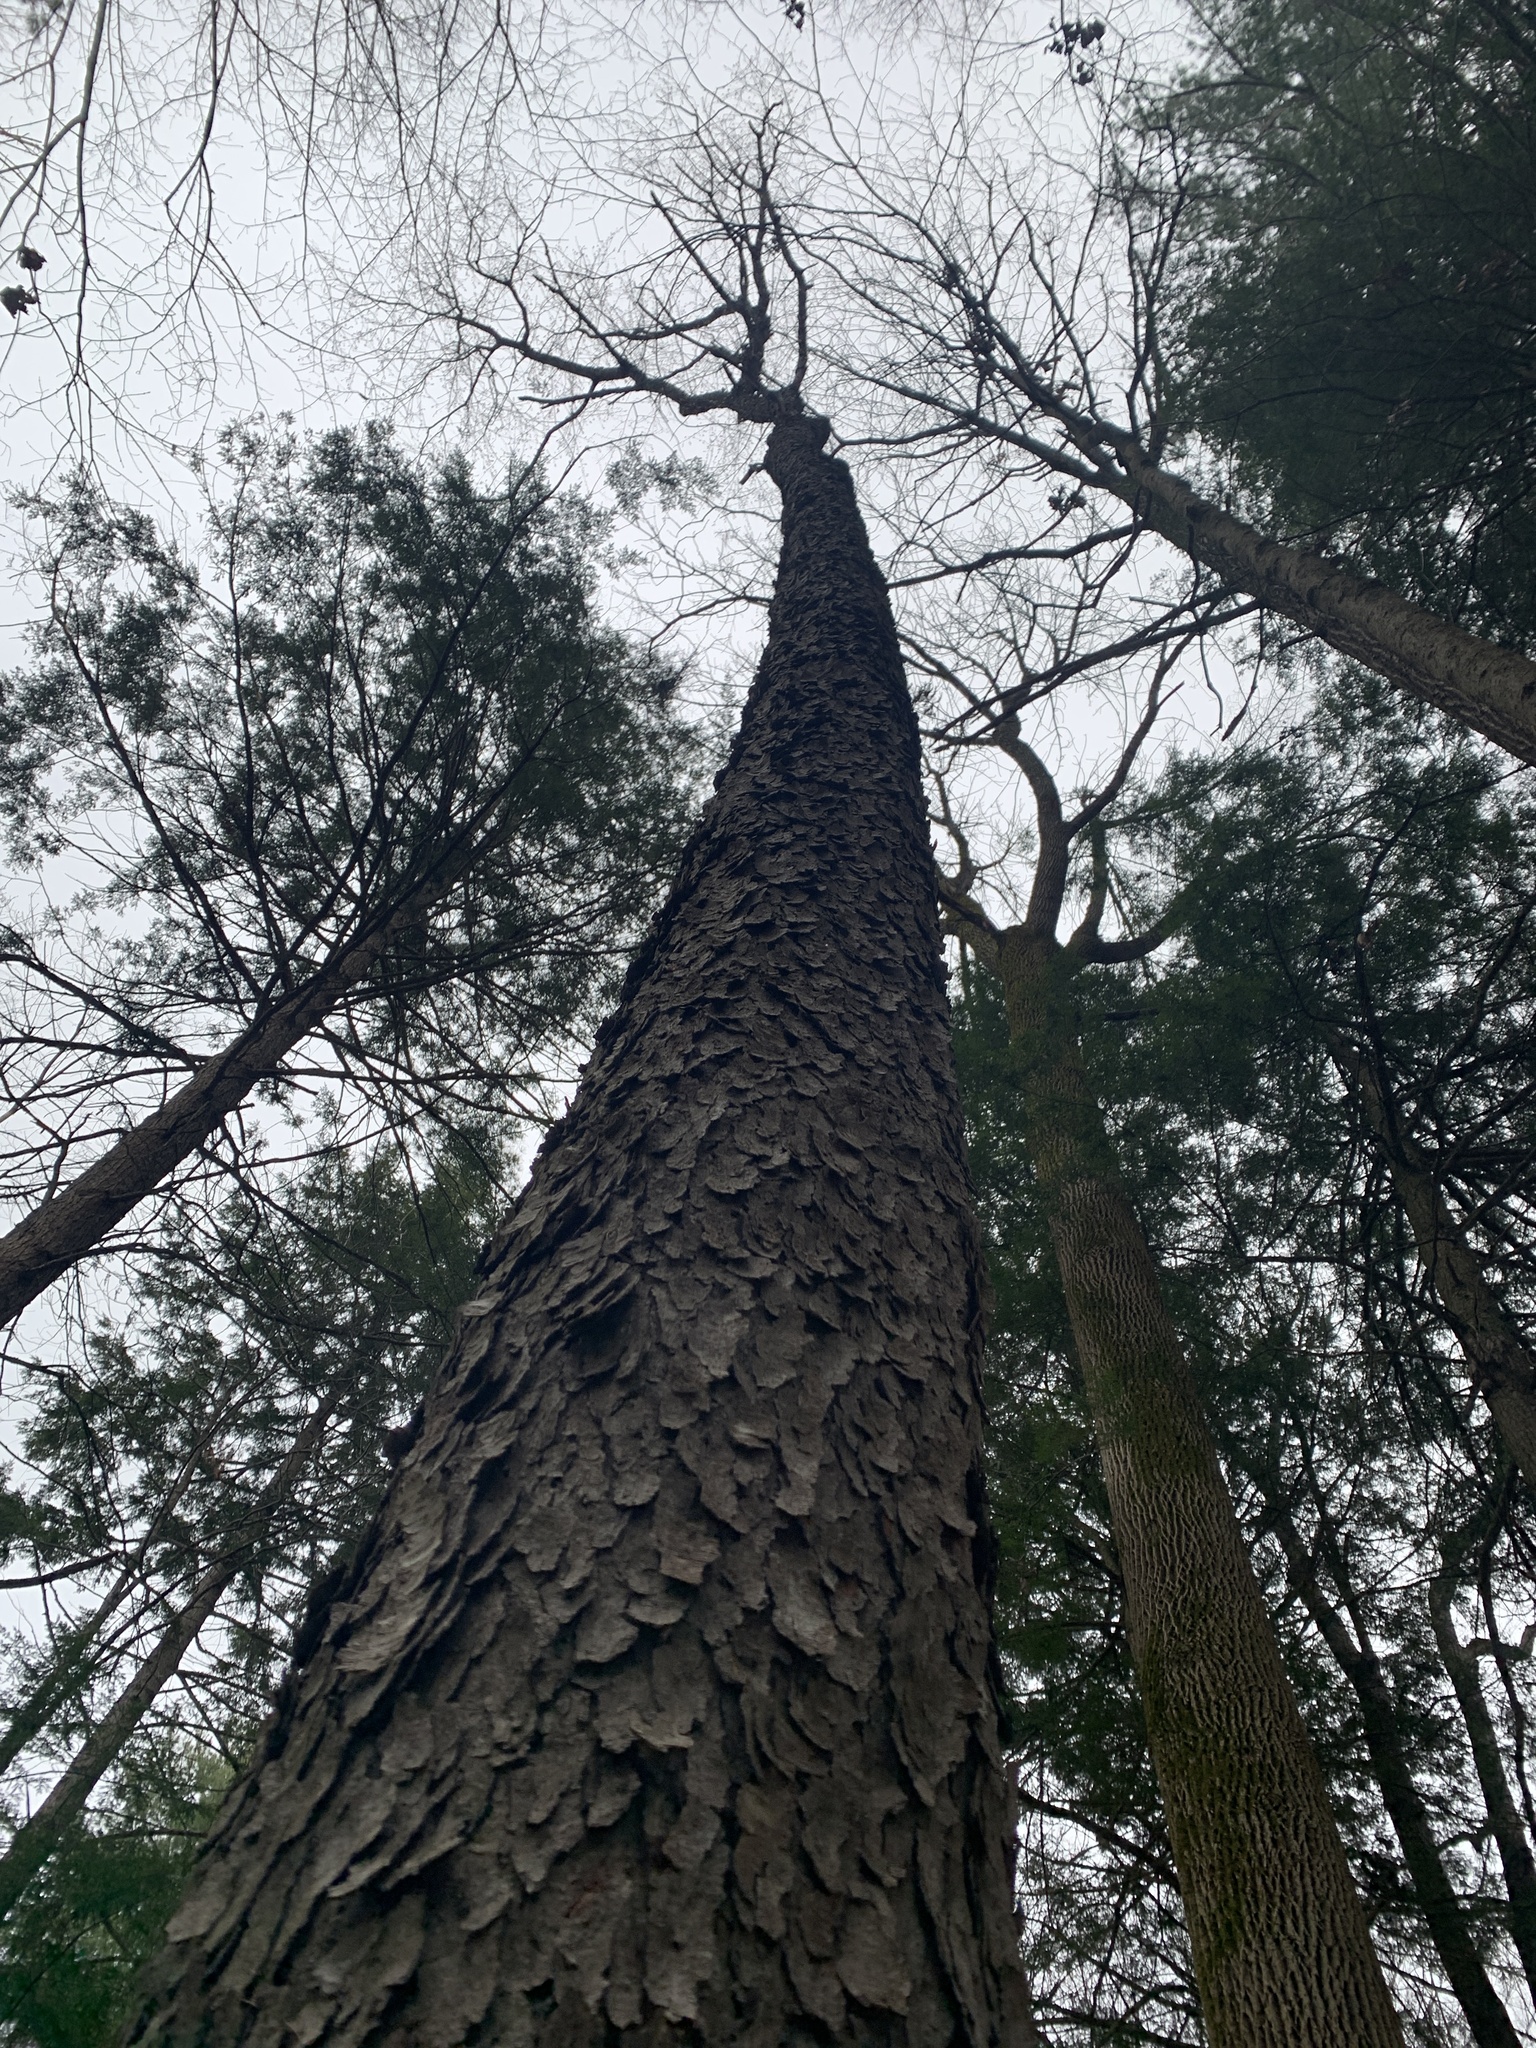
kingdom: Plantae
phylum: Tracheophyta
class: Magnoliopsida
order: Rosales
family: Rosaceae
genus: Prunus
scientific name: Prunus serotina
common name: Black cherry
